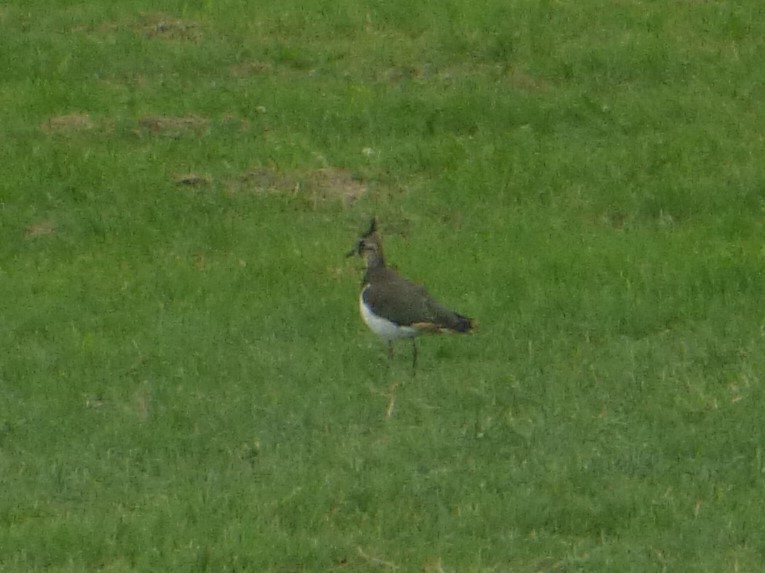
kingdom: Animalia
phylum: Chordata
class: Aves
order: Charadriiformes
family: Charadriidae
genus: Vanellus
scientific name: Vanellus vanellus
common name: Northern lapwing
